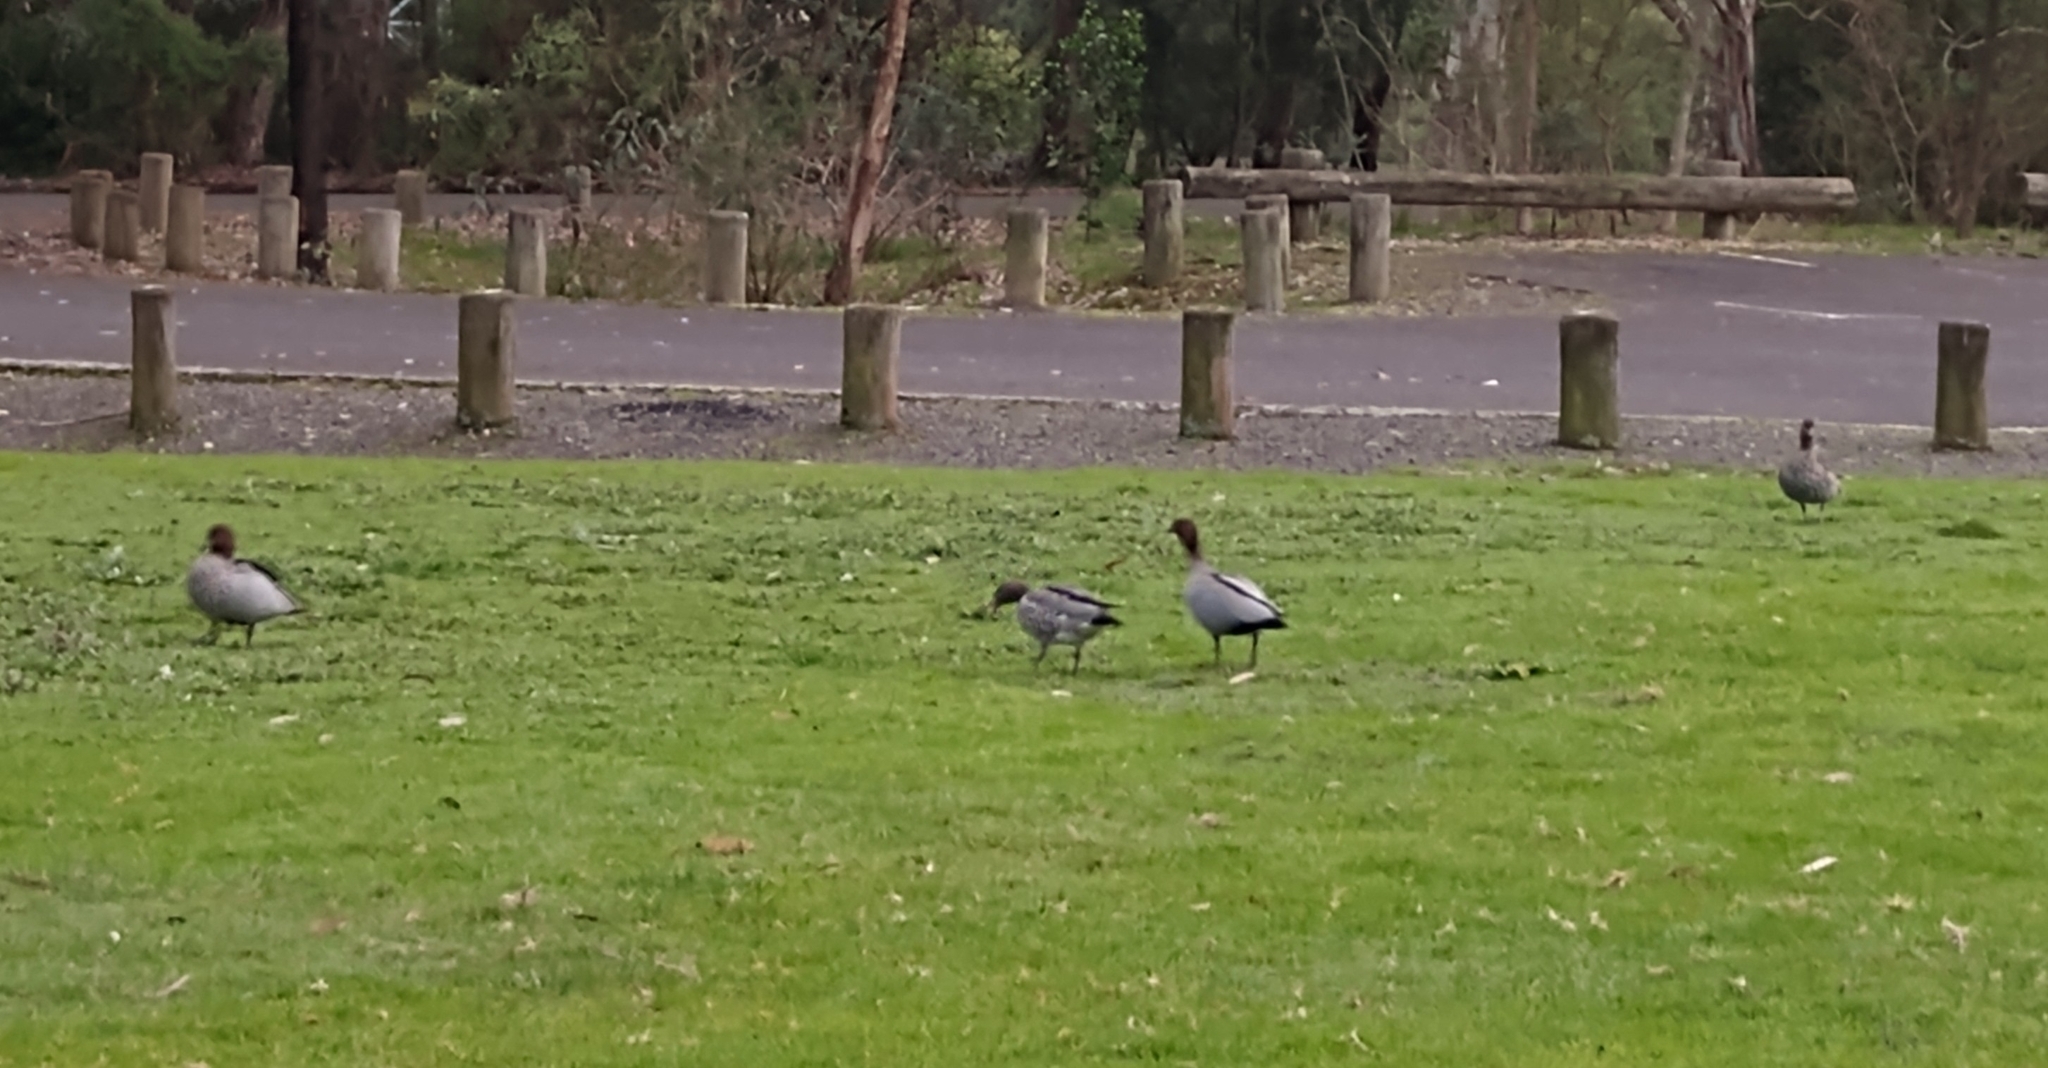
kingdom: Animalia
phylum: Chordata
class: Aves
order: Anseriformes
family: Anatidae
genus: Chenonetta
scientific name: Chenonetta jubata
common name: Maned duck
